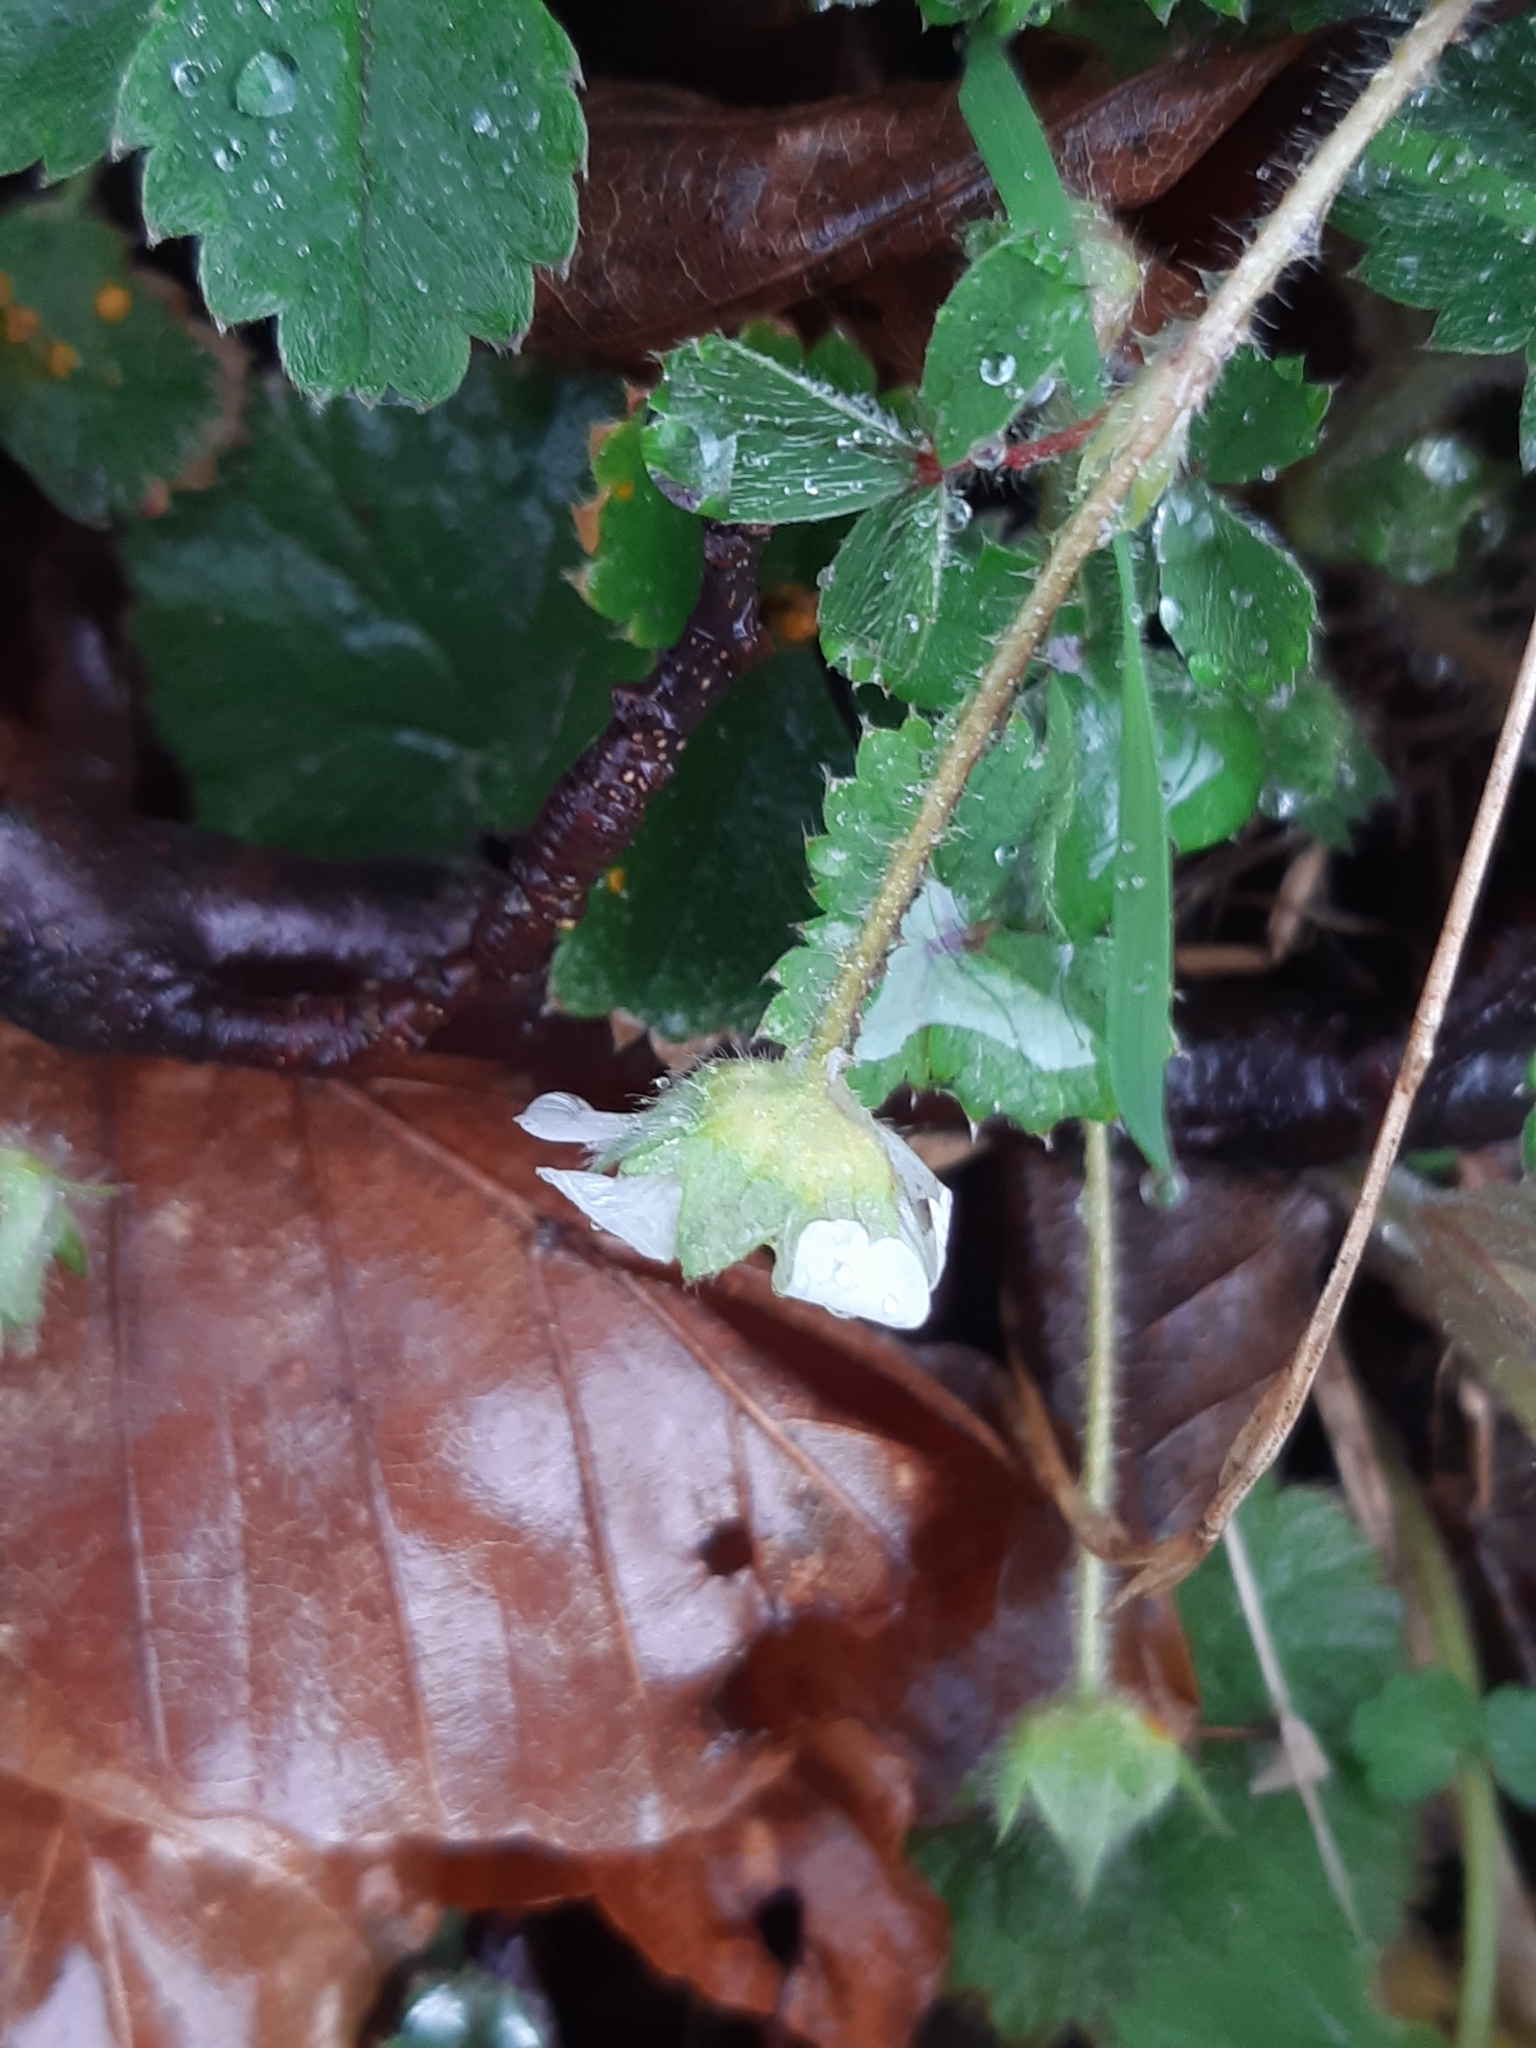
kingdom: Plantae
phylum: Tracheophyta
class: Magnoliopsida
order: Rosales
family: Rosaceae
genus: Potentilla
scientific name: Potentilla sterilis
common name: Barren strawberry
